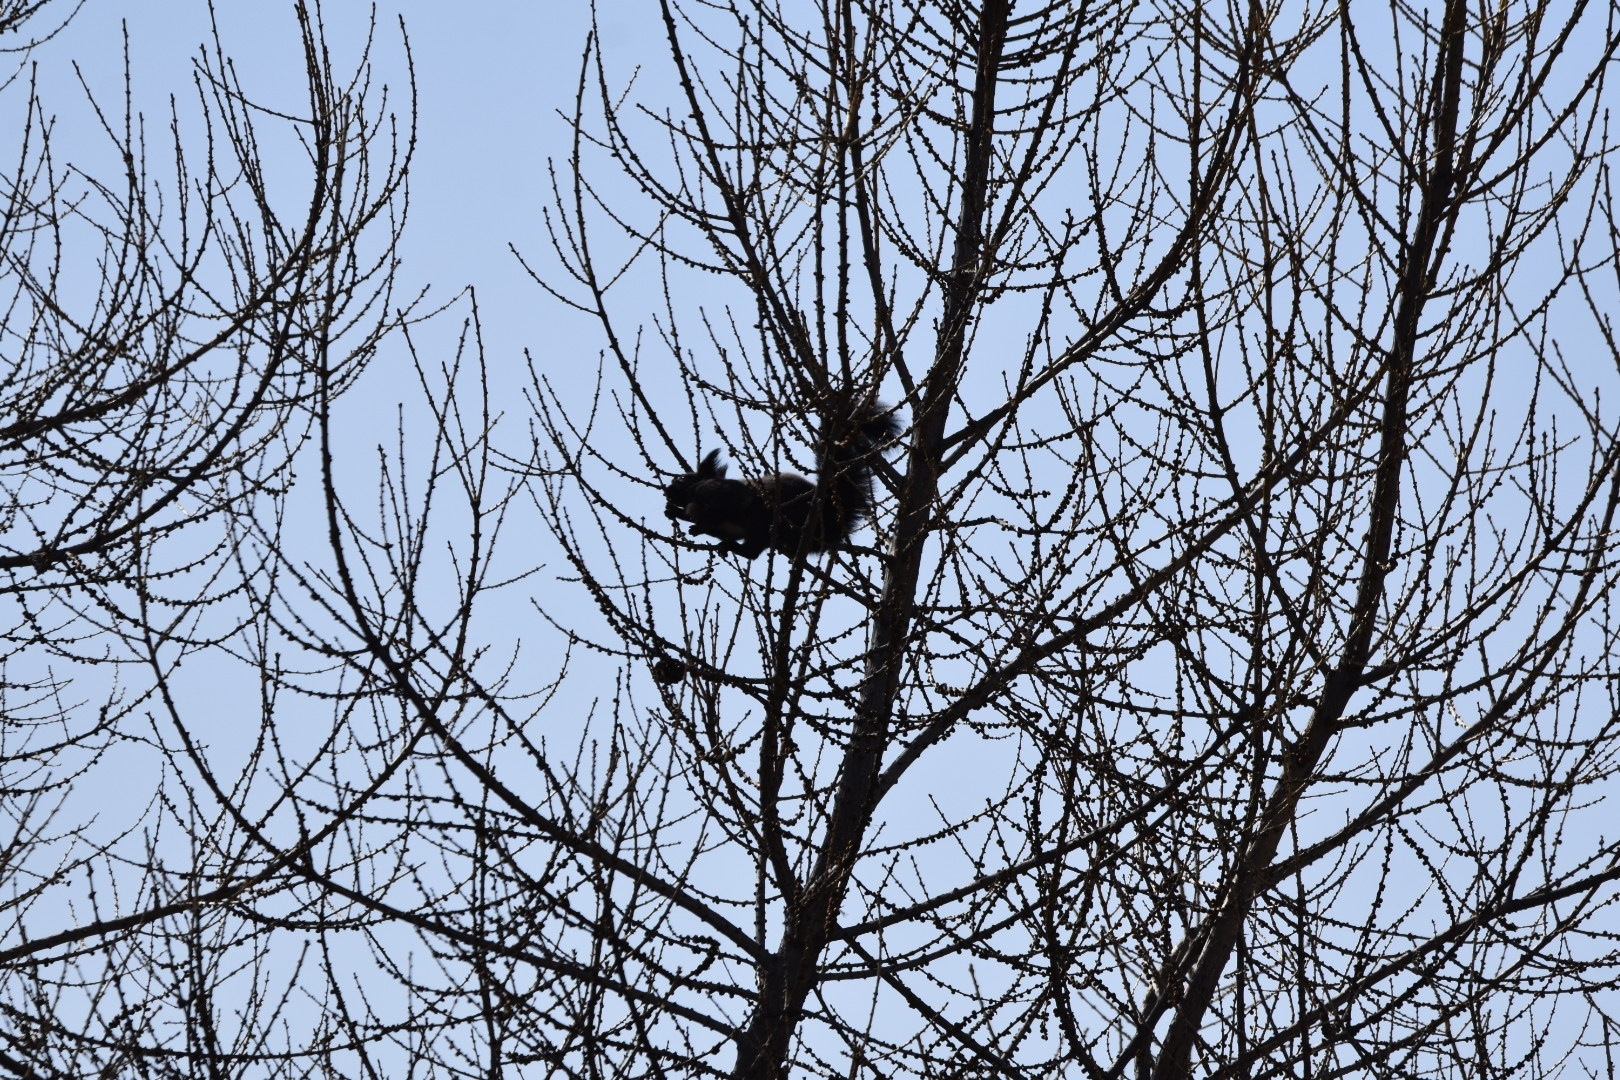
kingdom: Animalia
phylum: Chordata
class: Mammalia
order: Rodentia
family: Sciuridae
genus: Sciurus
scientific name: Sciurus vulgaris
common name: Eurasian red squirrel
